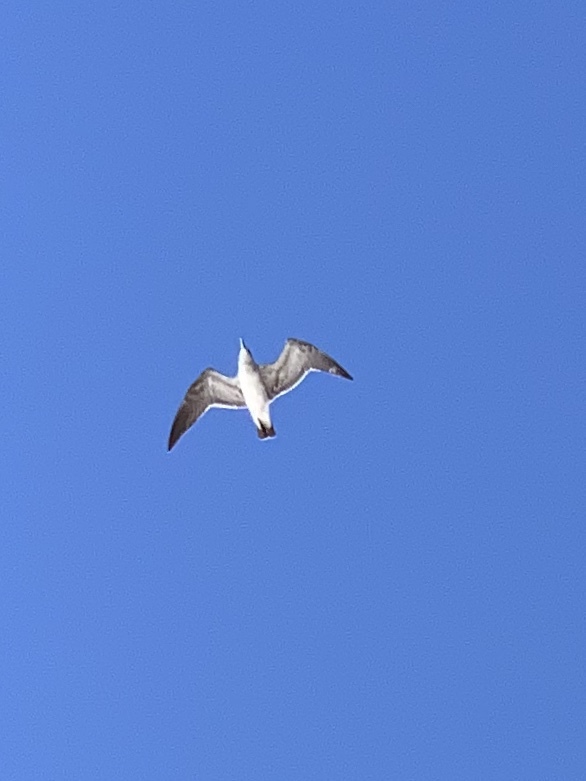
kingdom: Animalia
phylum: Chordata
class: Aves
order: Charadriiformes
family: Laridae
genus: Leucophaeus
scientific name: Leucophaeus atricilla
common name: Laughing gull
